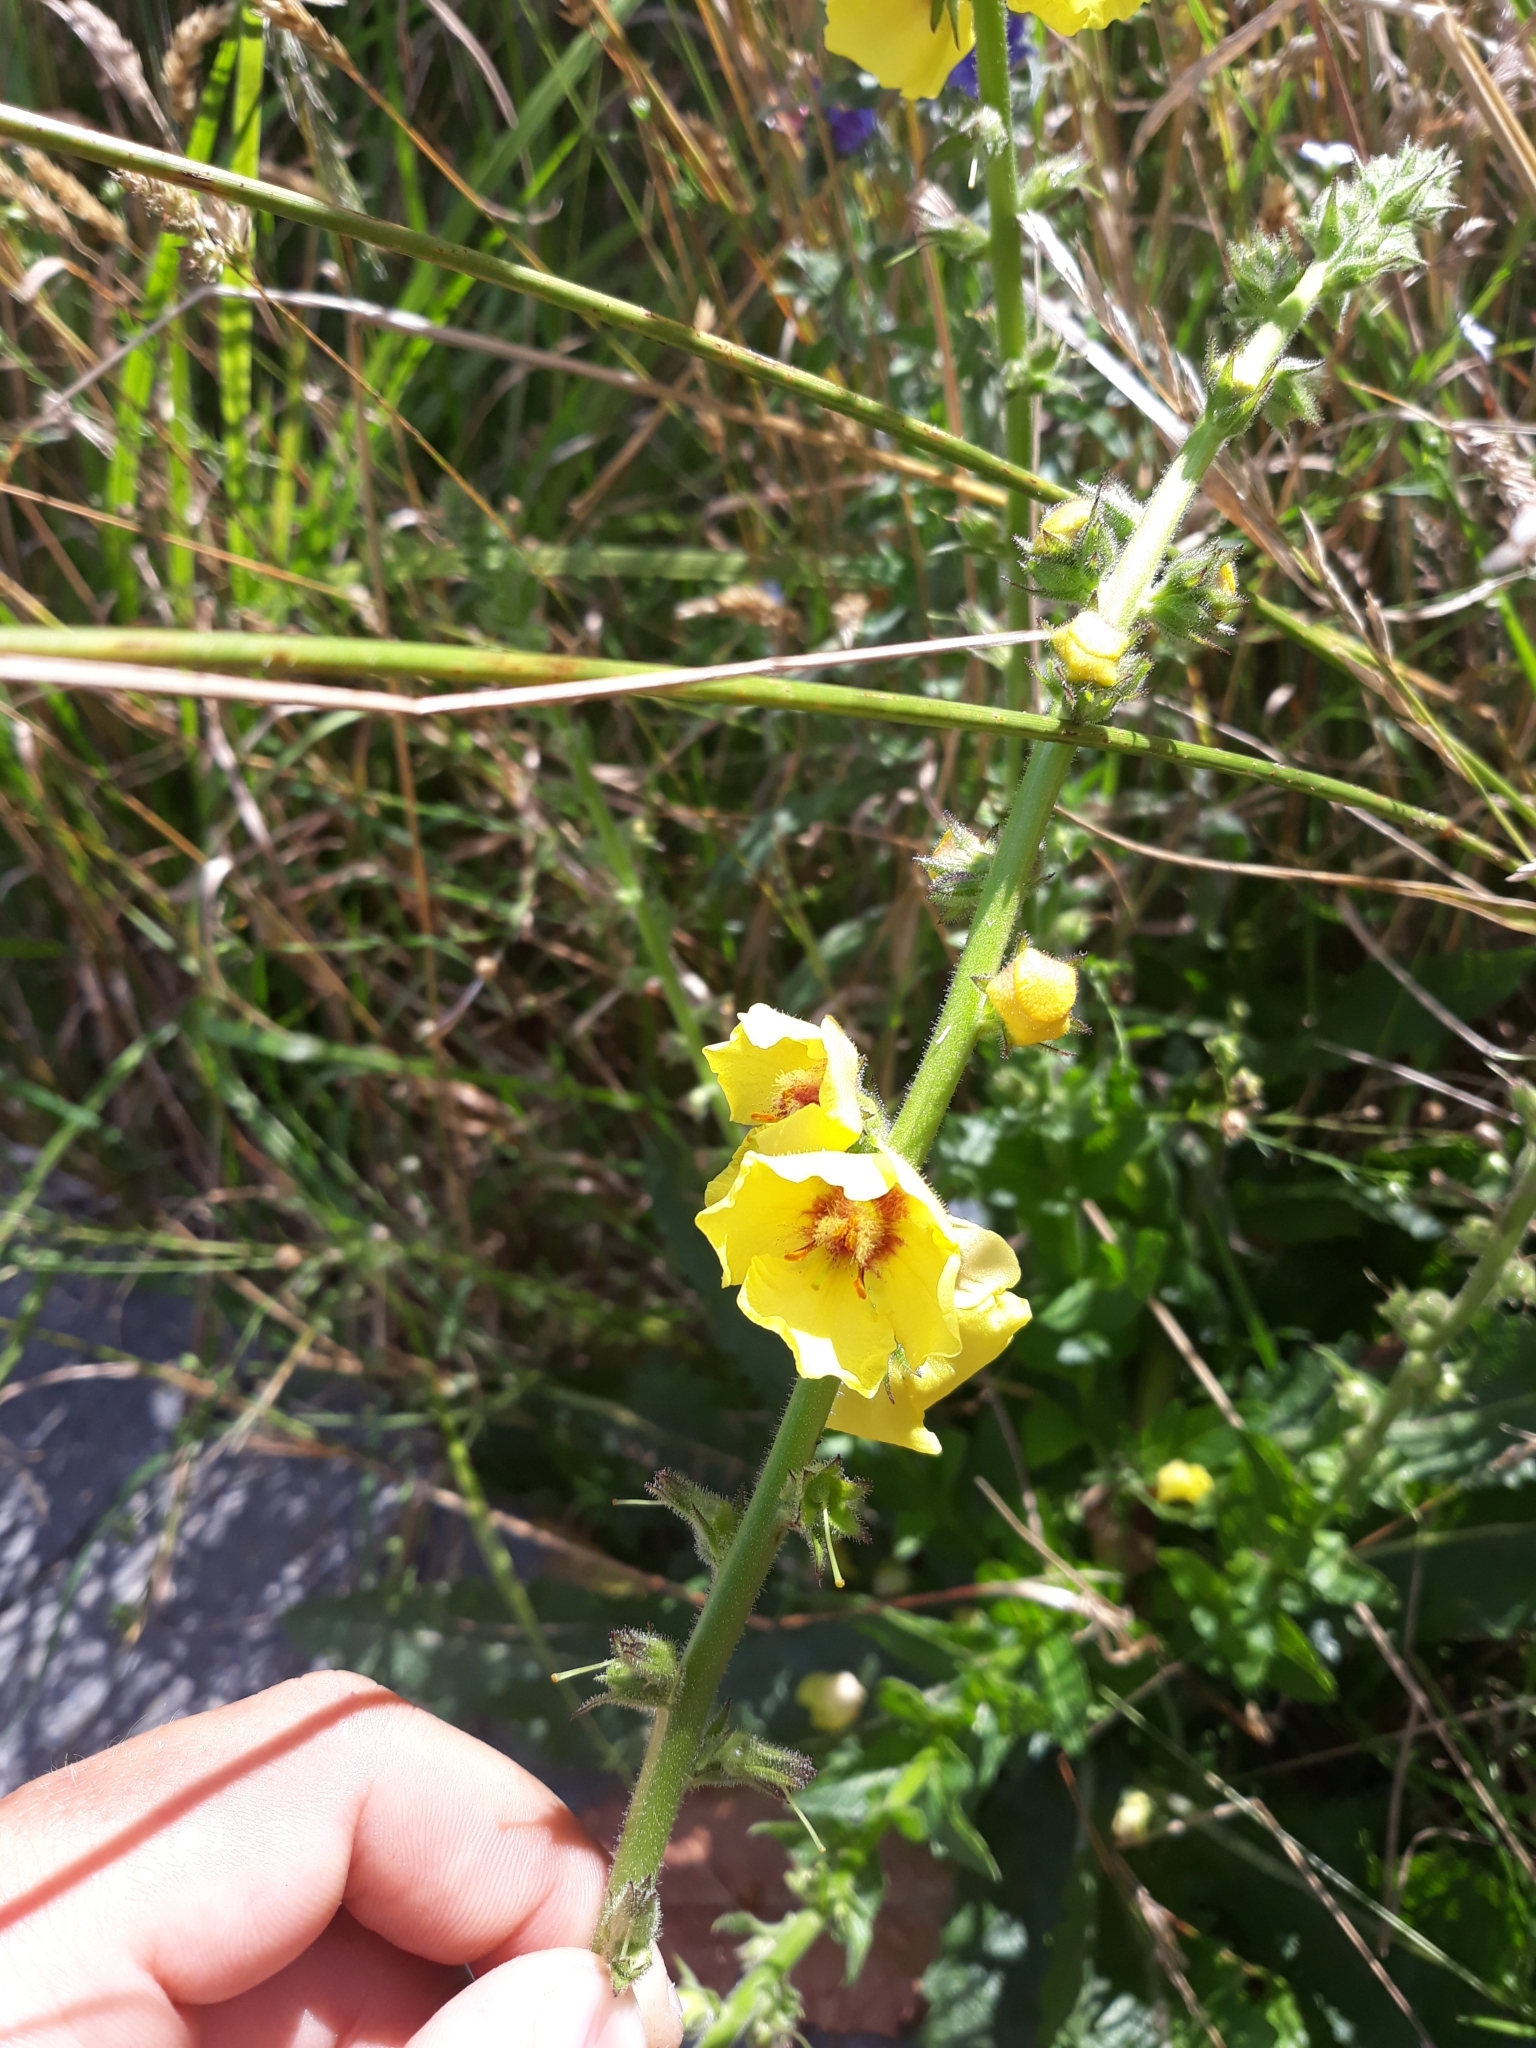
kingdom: Plantae
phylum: Tracheophyta
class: Magnoliopsida
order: Lamiales
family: Scrophulariaceae
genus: Verbascum
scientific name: Verbascum virgatum
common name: Twiggy mullein
